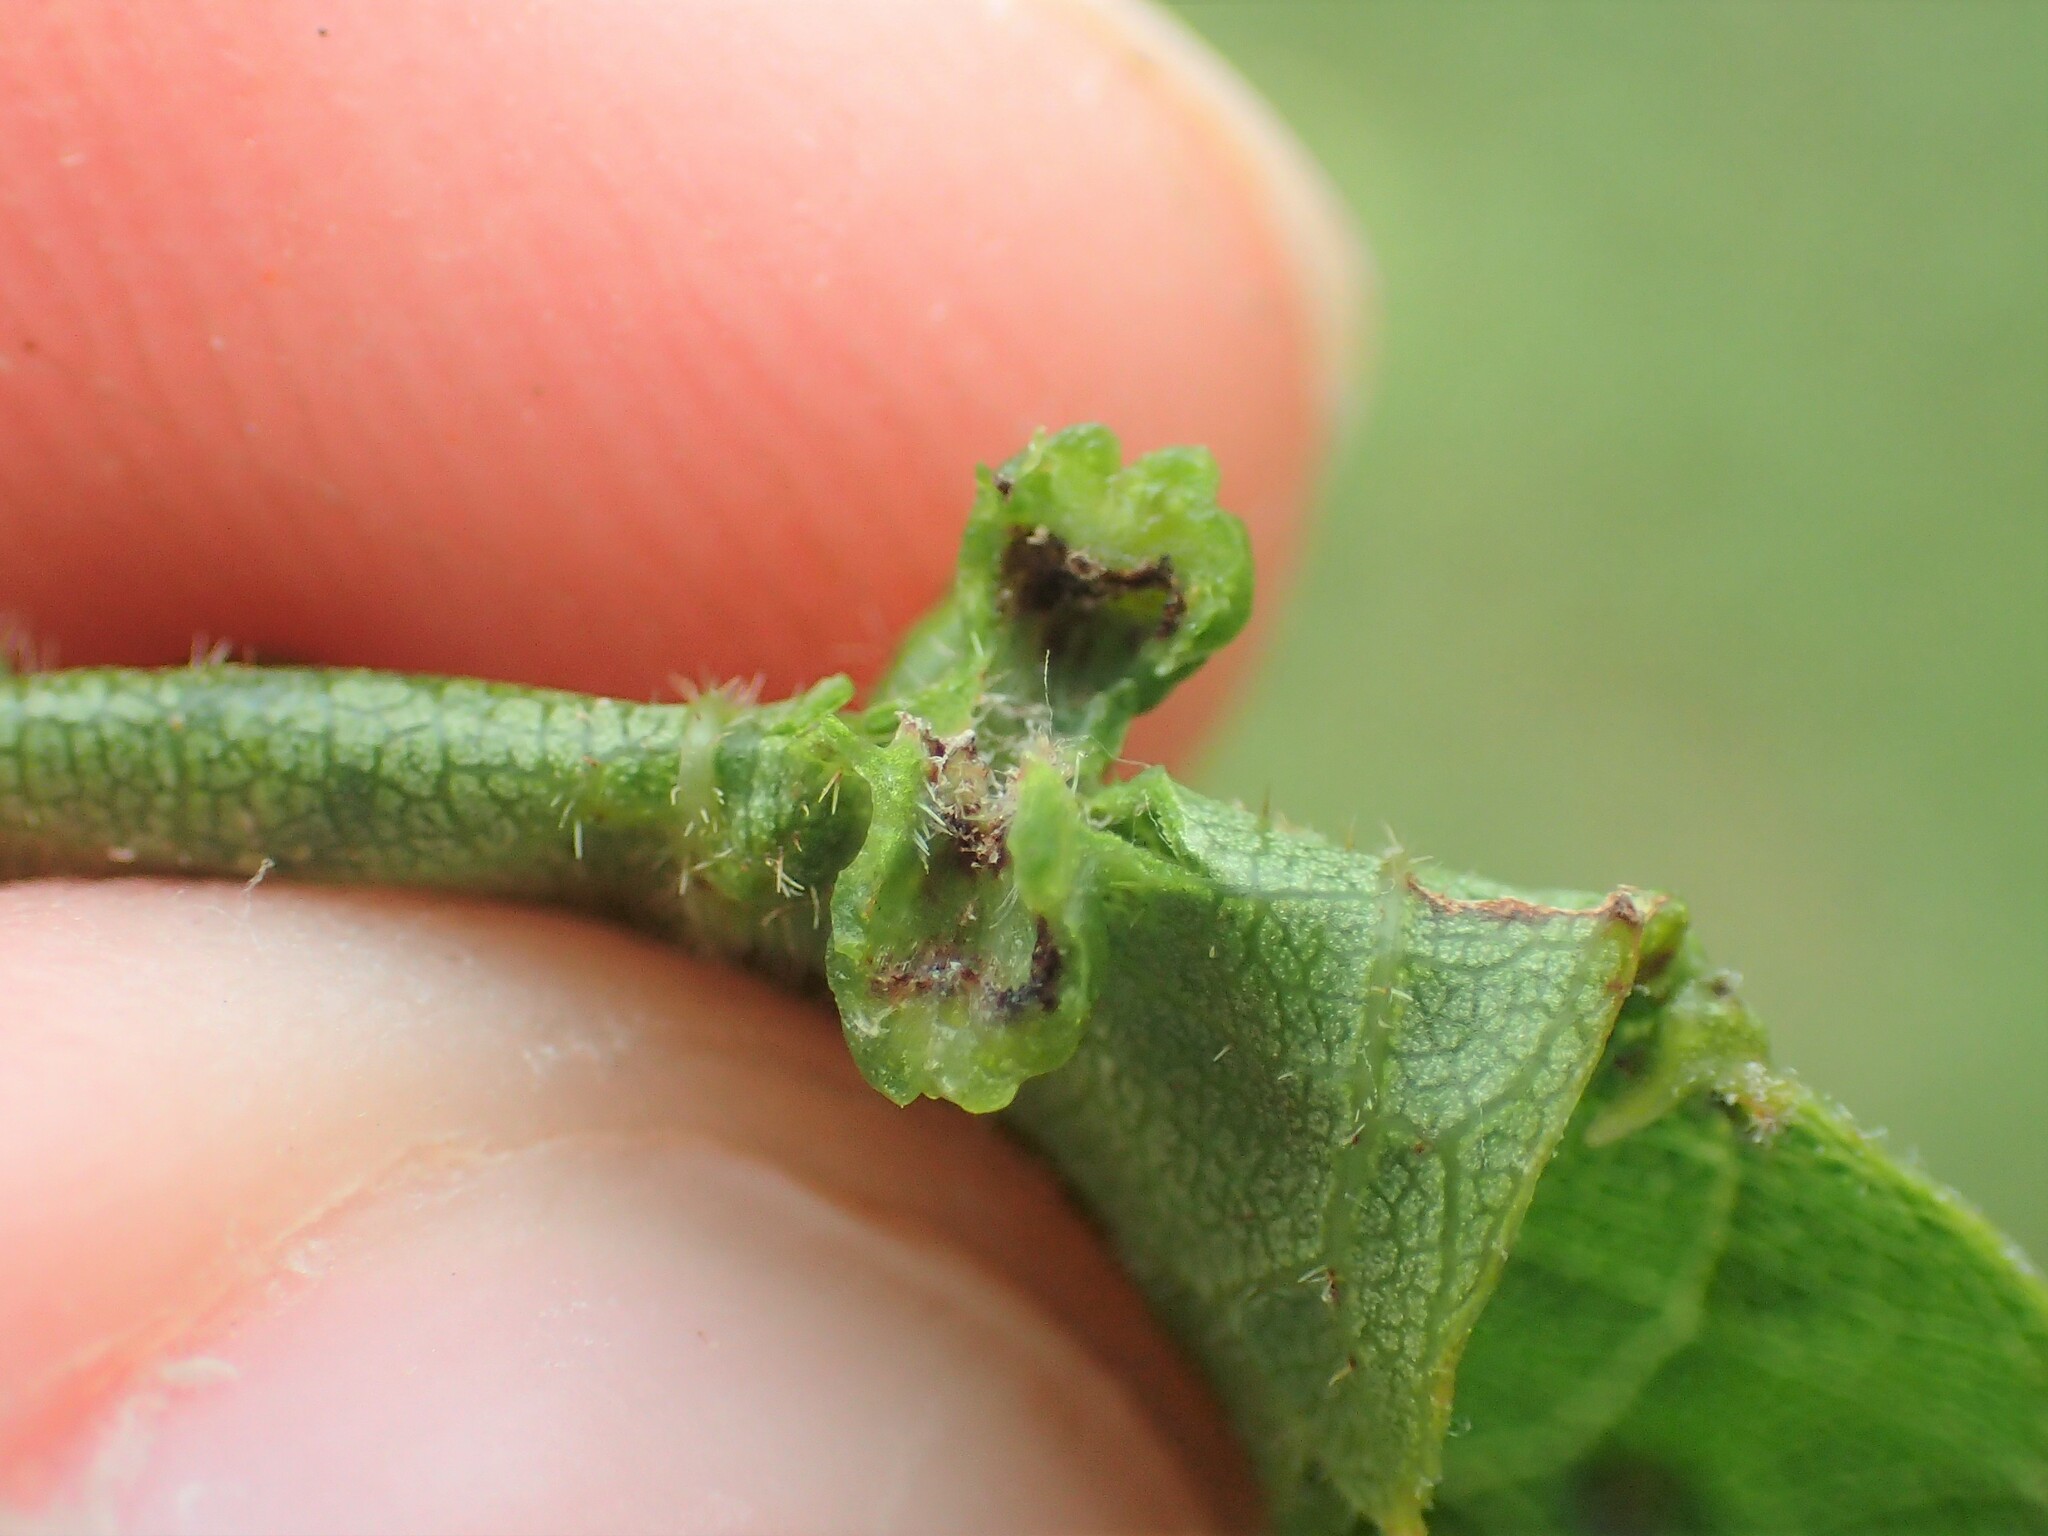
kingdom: Animalia
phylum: Arthropoda
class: Insecta
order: Hemiptera
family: Phylloxeridae
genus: Daktulosphaira
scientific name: Daktulosphaira vitifoliae
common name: Grape phylloxera
